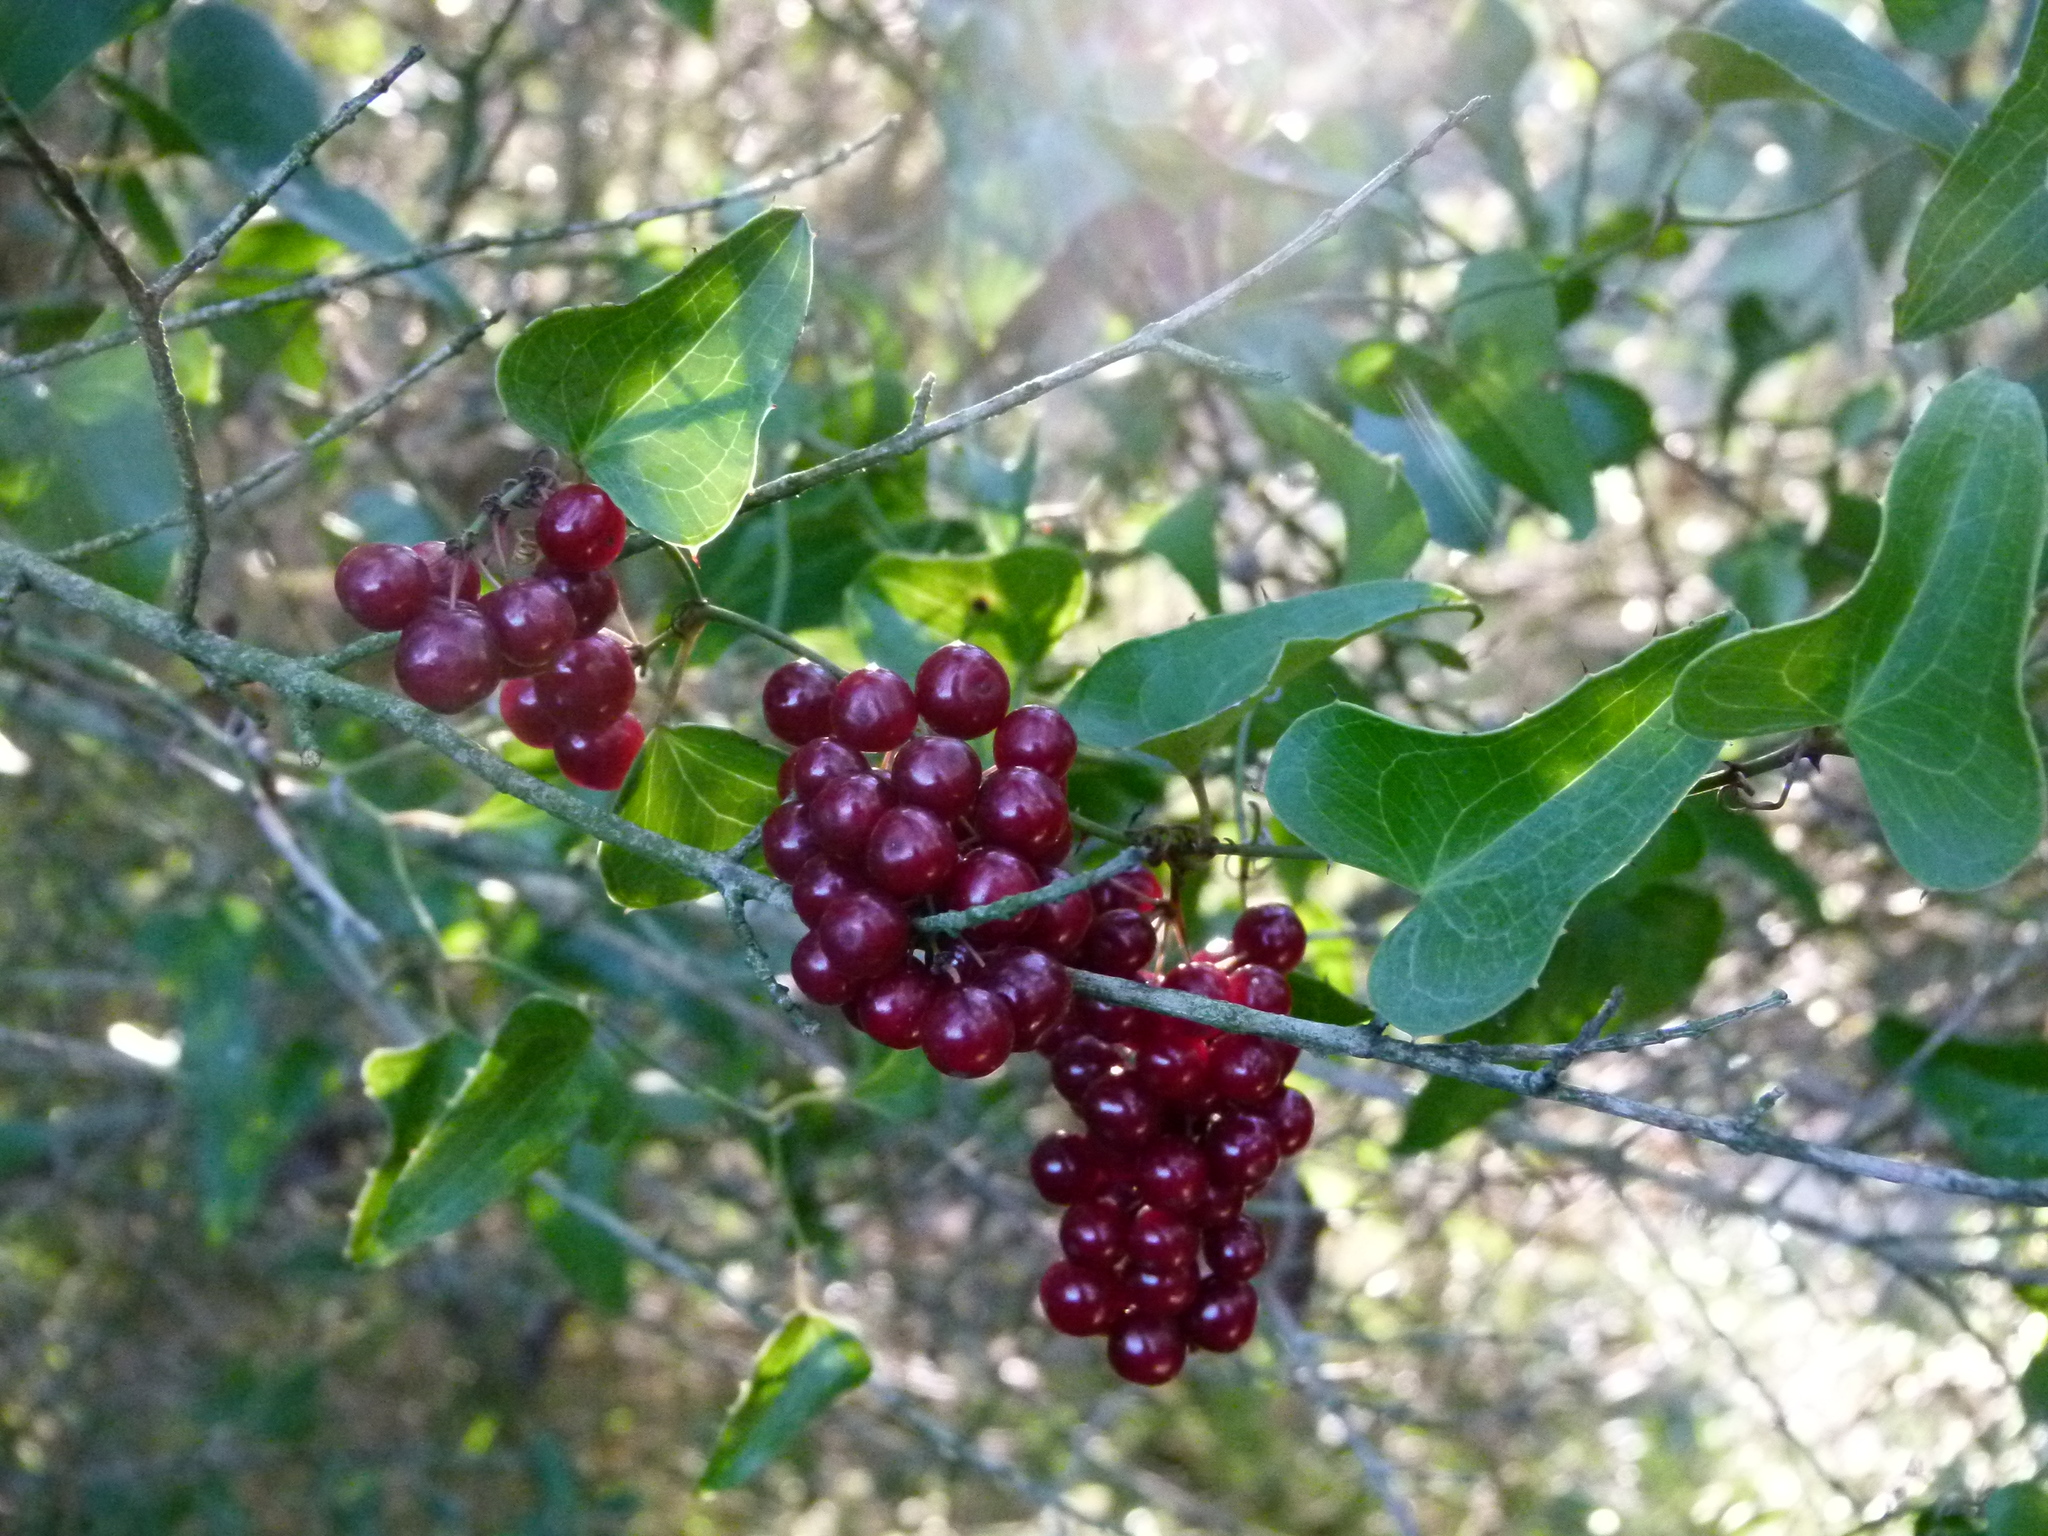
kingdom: Plantae
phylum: Tracheophyta
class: Liliopsida
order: Liliales
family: Smilacaceae
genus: Smilax
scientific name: Smilax aspera
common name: Common smilax
